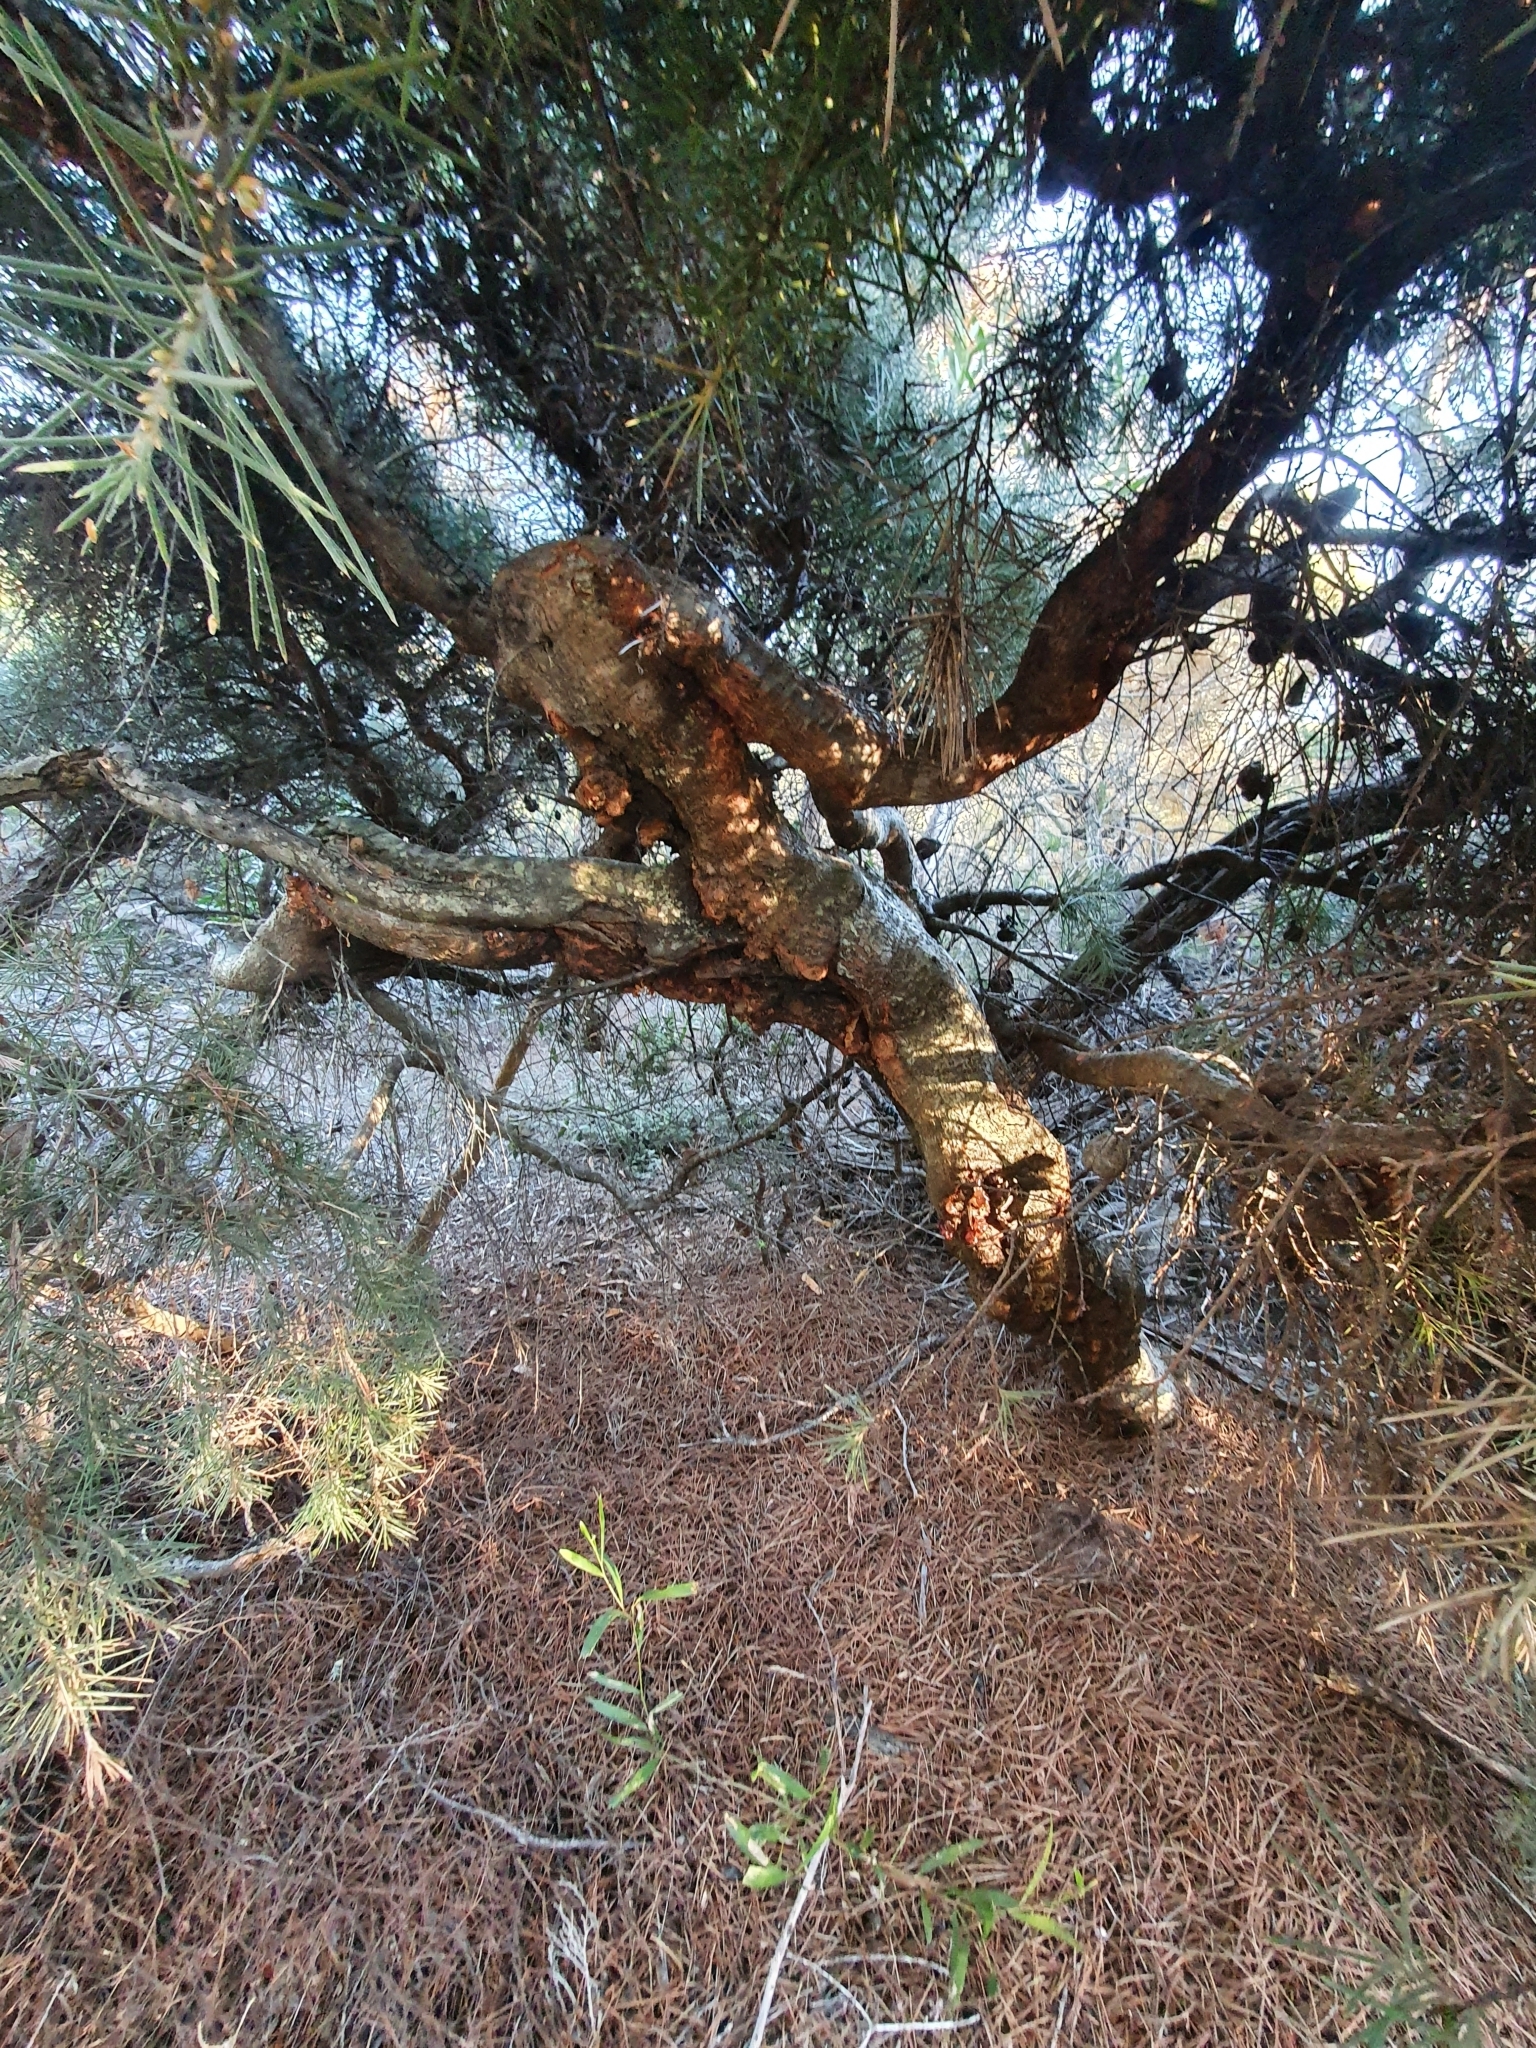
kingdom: Plantae
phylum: Tracheophyta
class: Magnoliopsida
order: Proteales
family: Proteaceae
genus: Hakea
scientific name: Hakea gibbosa
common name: Rock hakea
